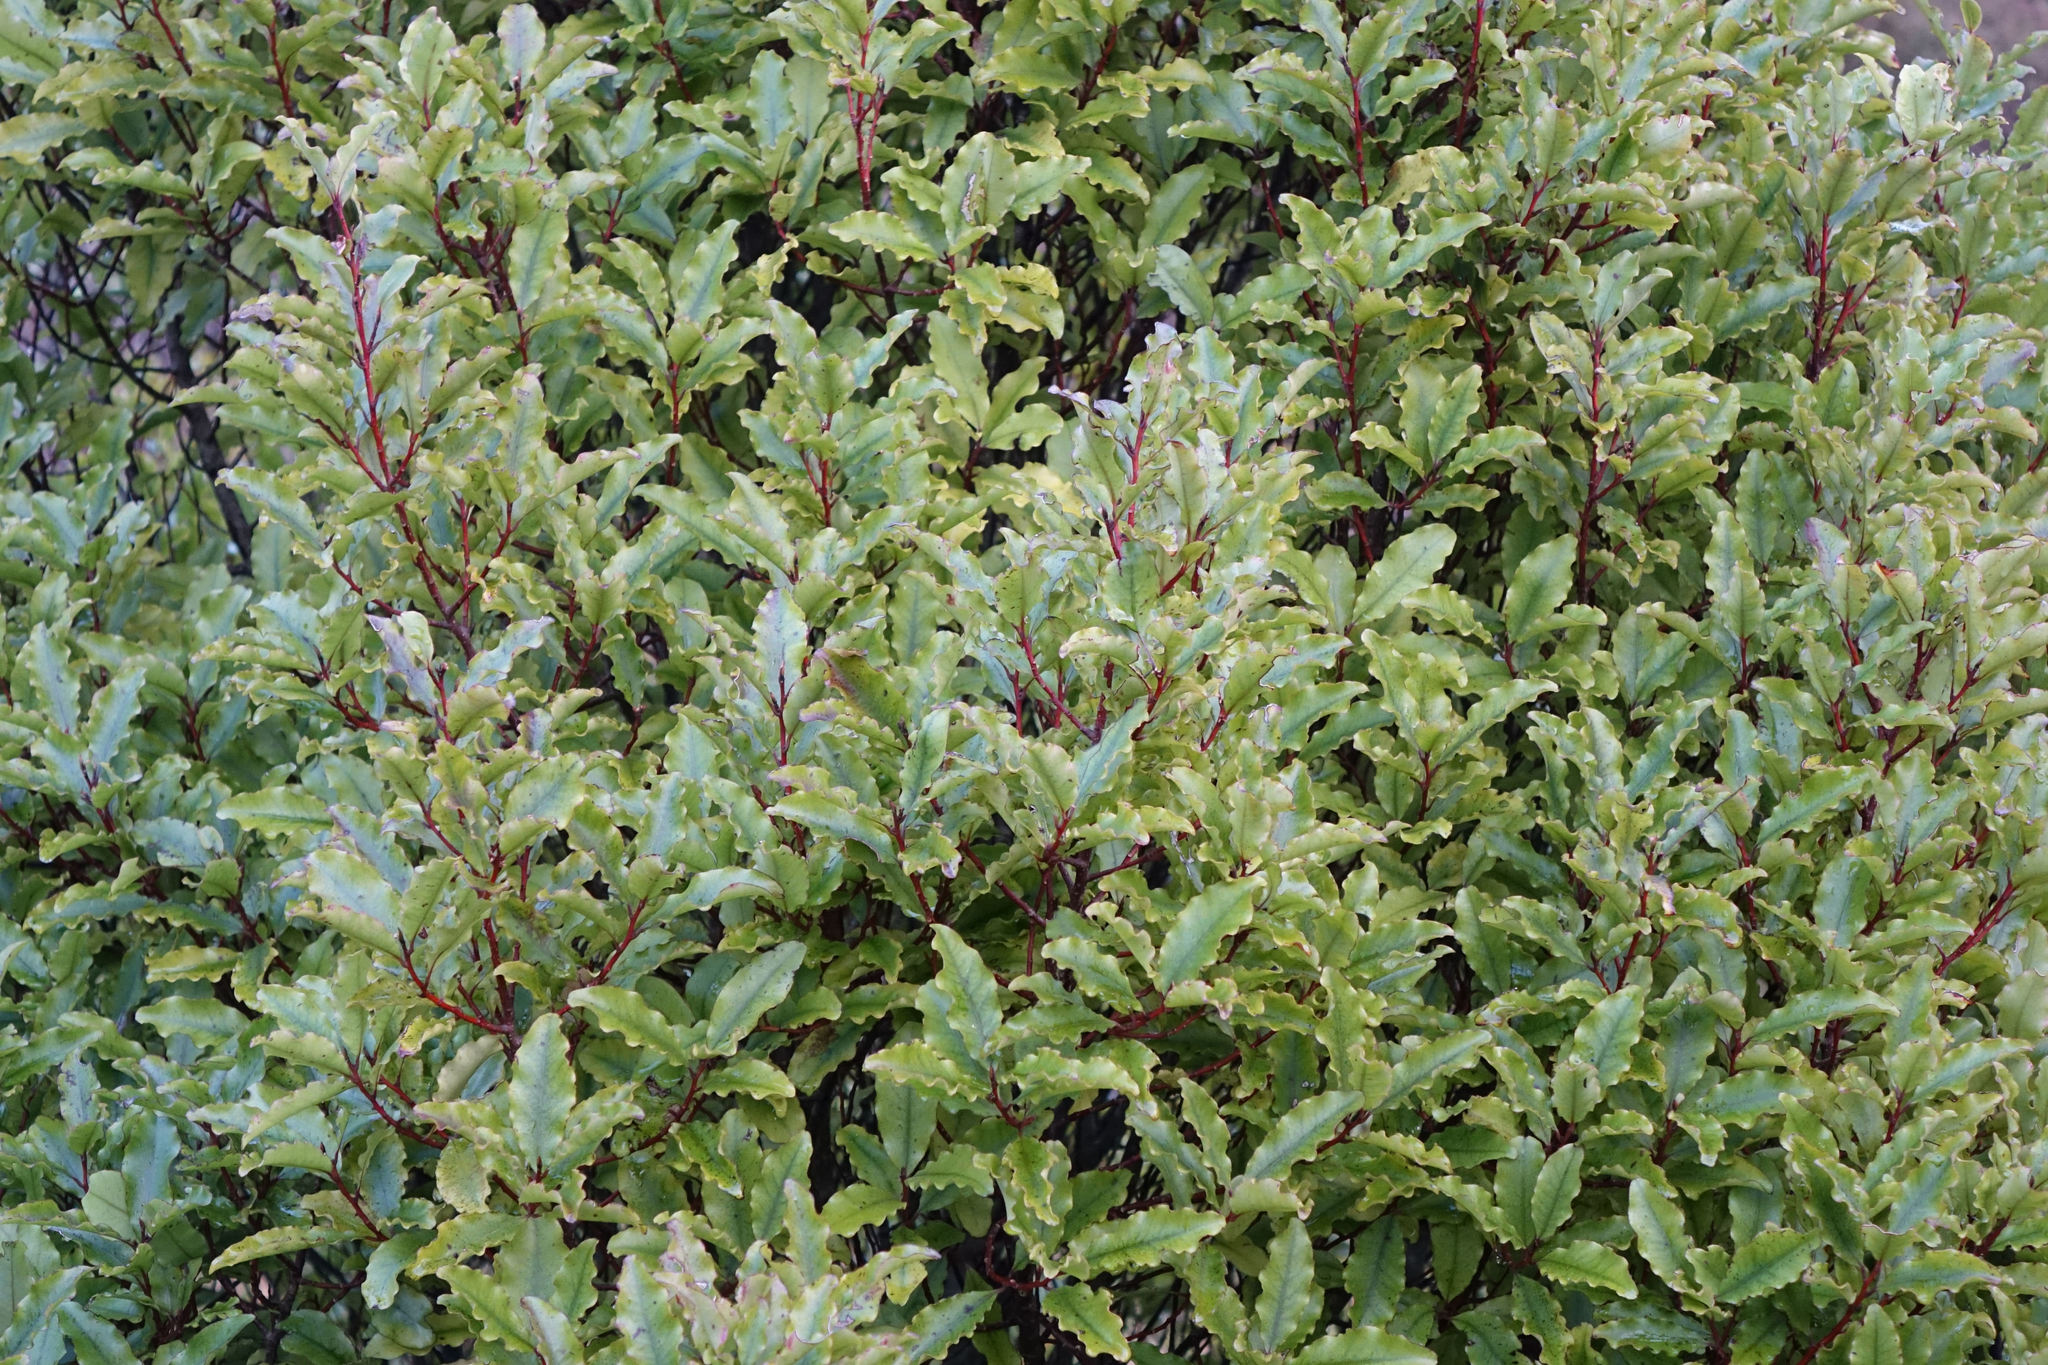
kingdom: Plantae
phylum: Tracheophyta
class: Magnoliopsida
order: Ericales
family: Primulaceae
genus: Myrsine
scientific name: Myrsine australis
